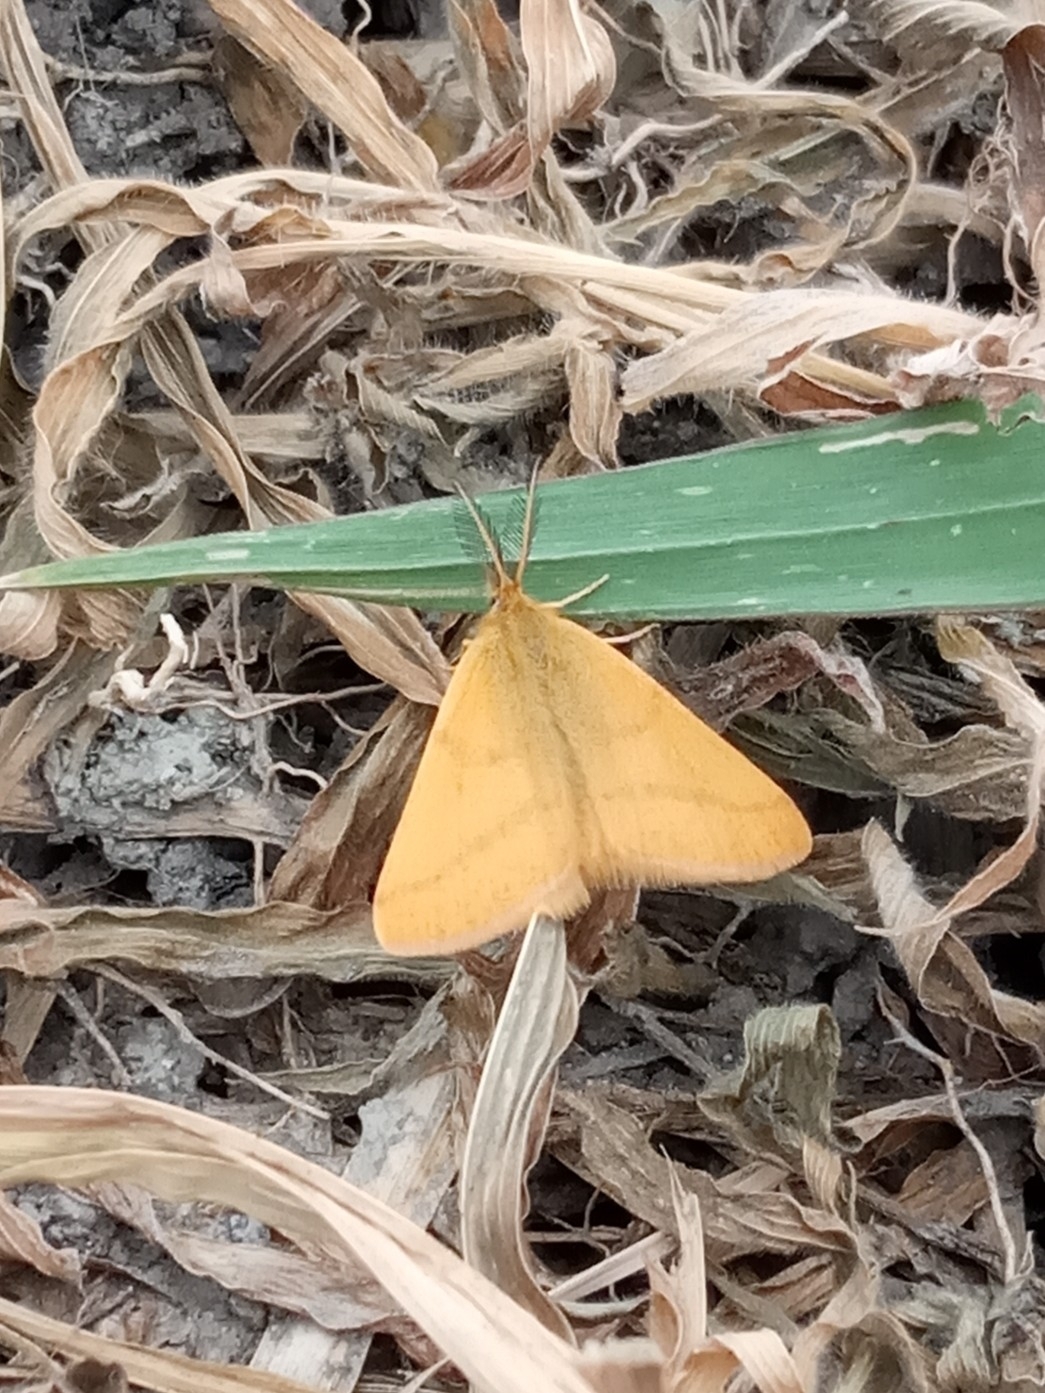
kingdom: Animalia
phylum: Arthropoda
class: Insecta
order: Lepidoptera
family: Geometridae
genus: Lythria
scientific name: Lythria purpuraria
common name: Purple-barred yellow
